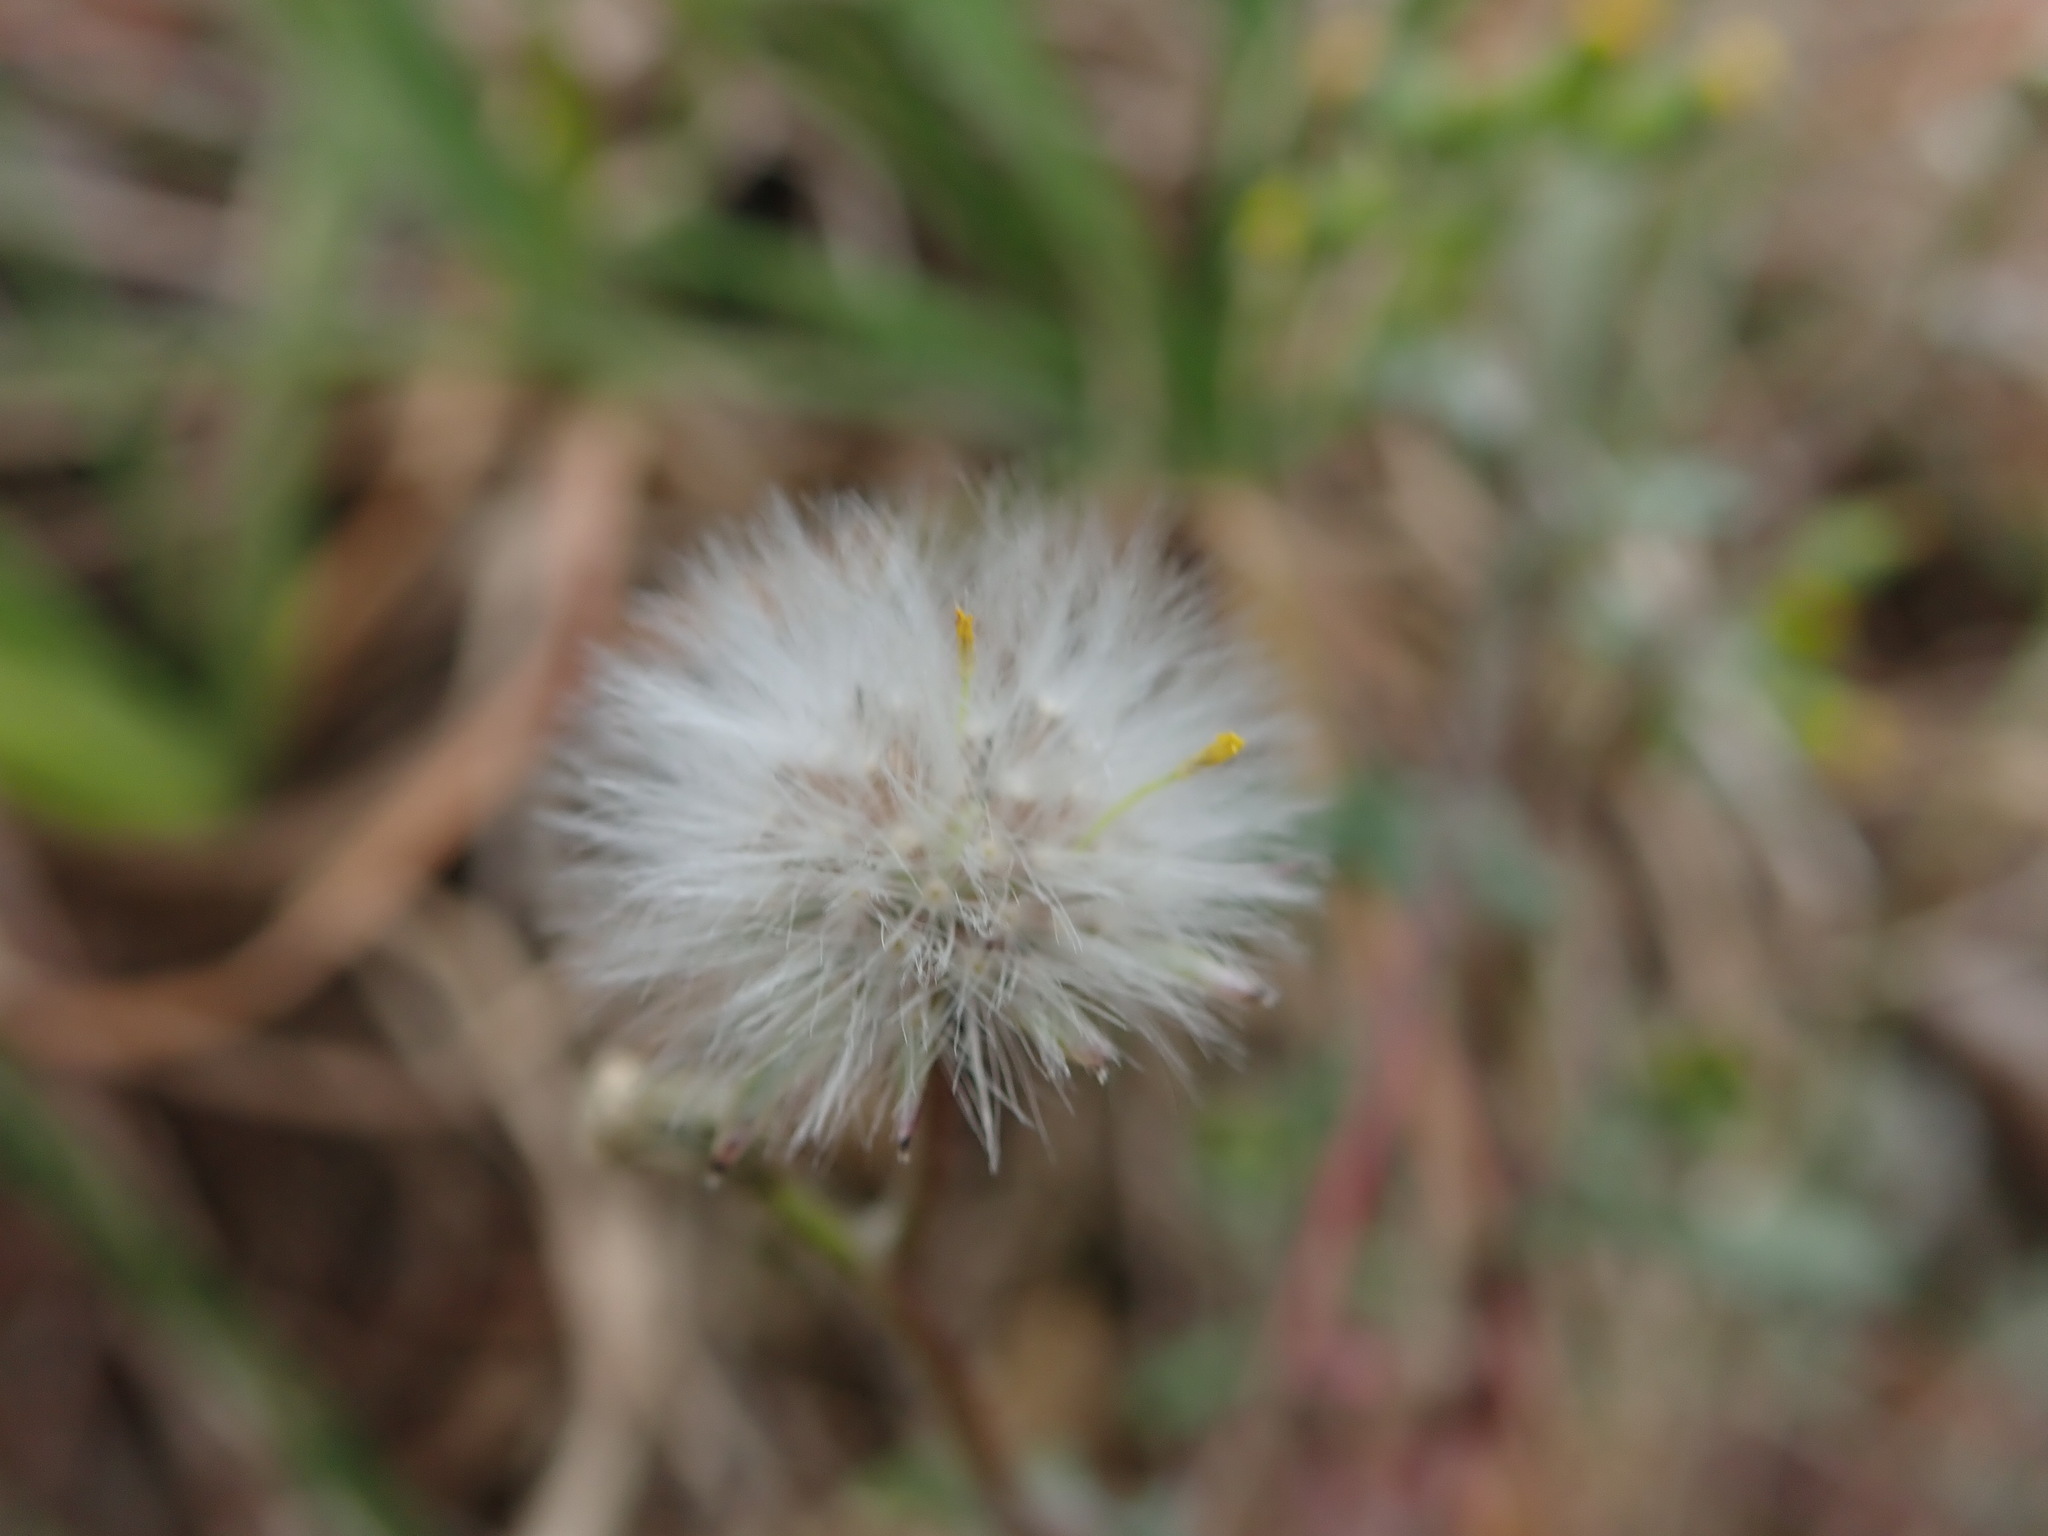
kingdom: Plantae
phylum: Tracheophyta
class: Magnoliopsida
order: Asterales
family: Asteraceae
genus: Senecio
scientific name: Senecio vulgaris
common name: Old-man-in-the-spring
